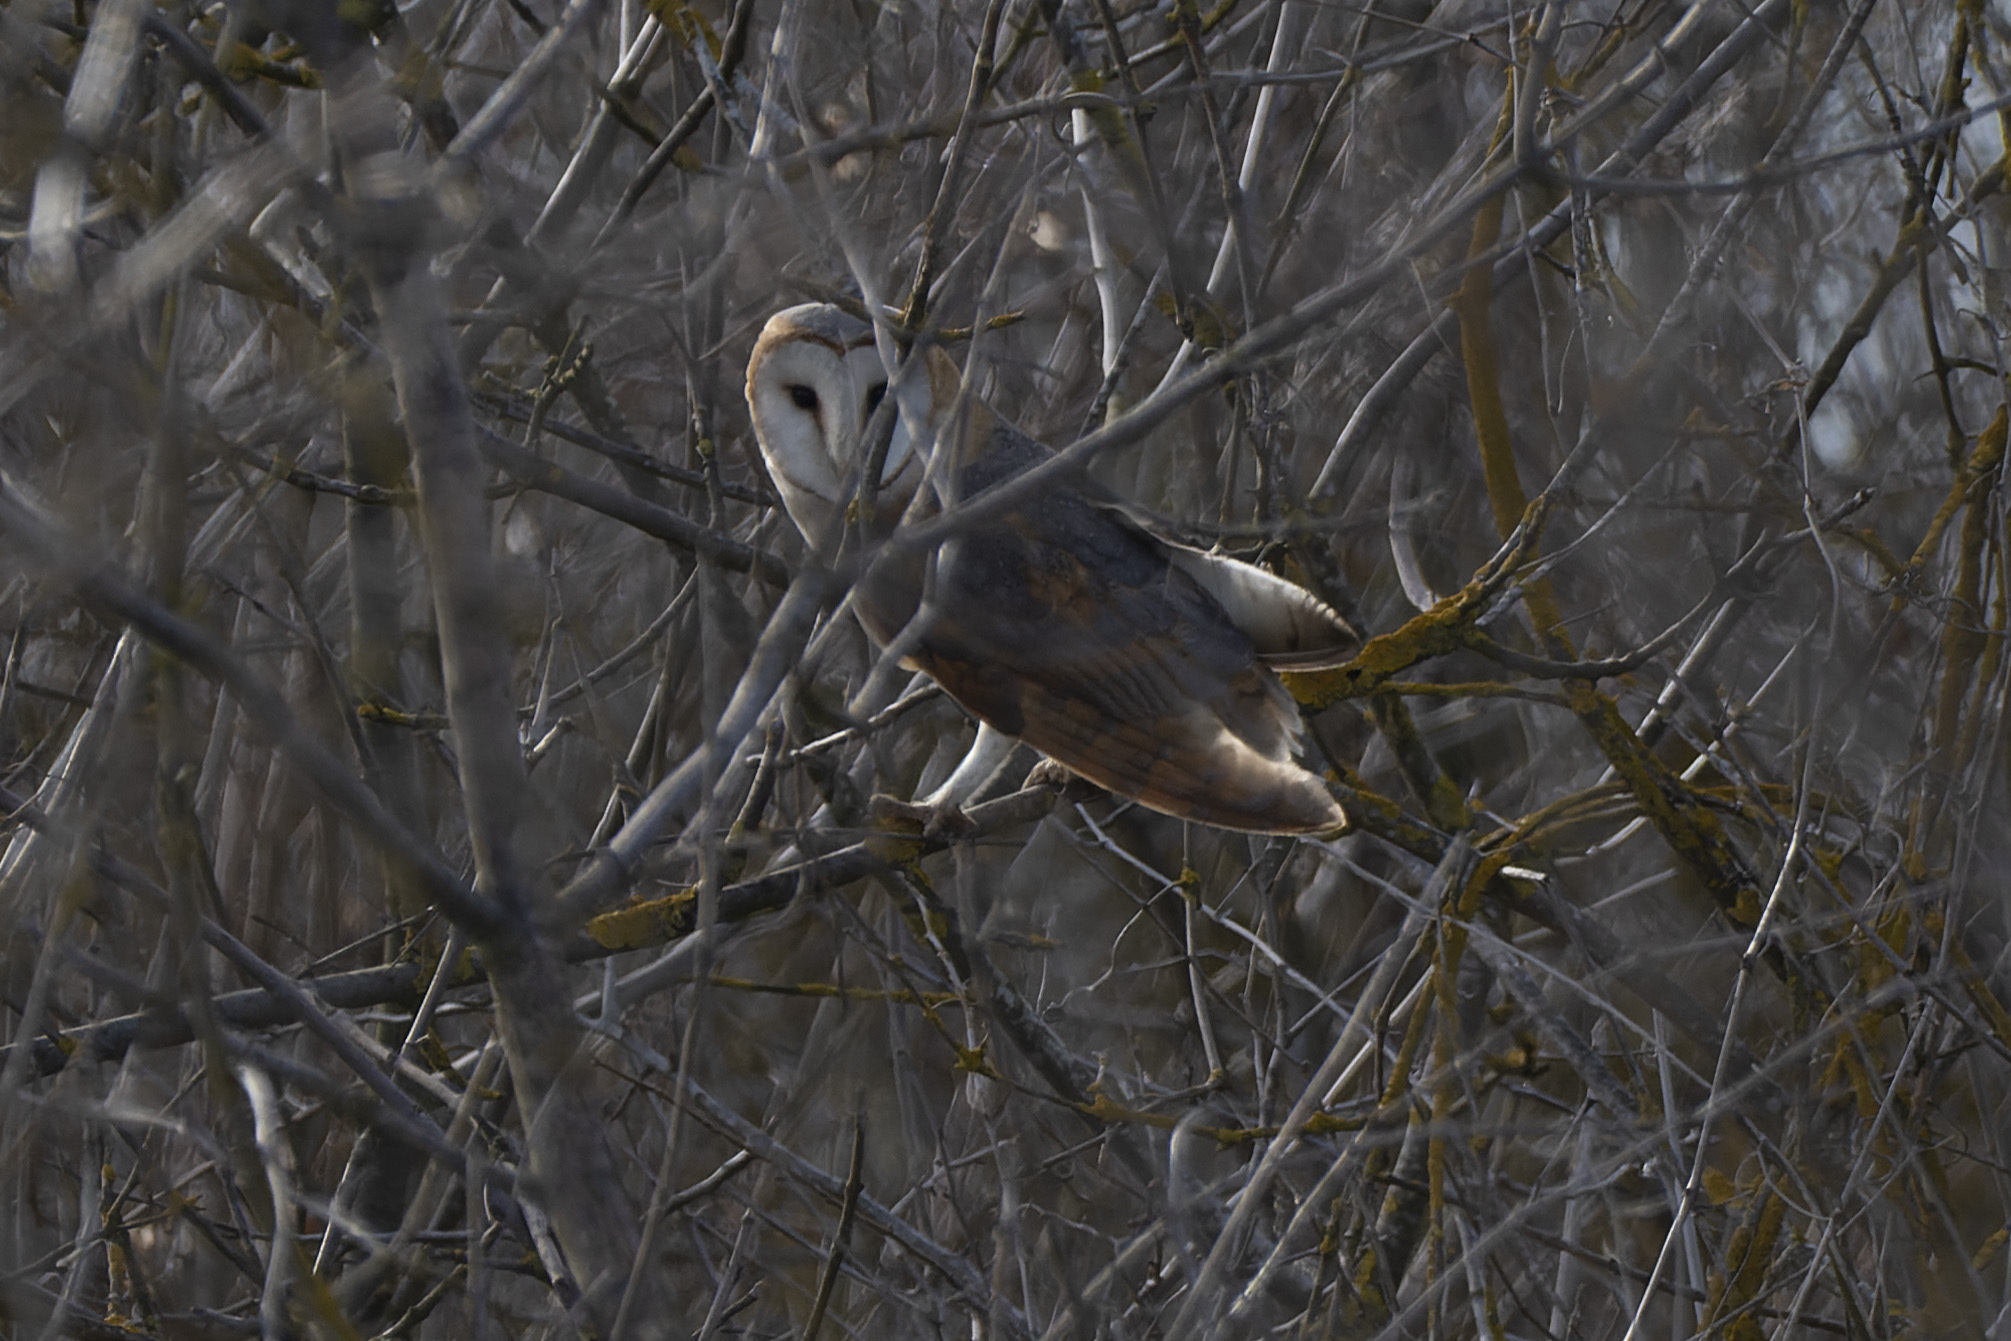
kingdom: Animalia
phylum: Chordata
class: Aves
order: Strigiformes
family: Tytonidae
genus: Tyto
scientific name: Tyto alba
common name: Barn owl
